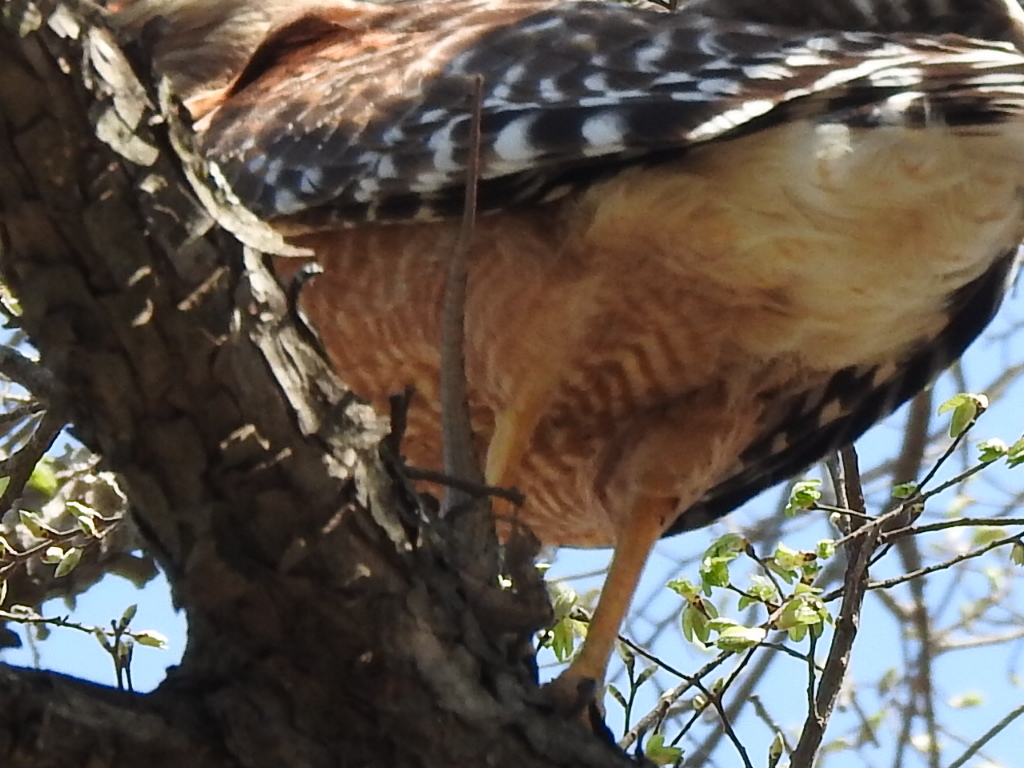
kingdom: Animalia
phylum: Chordata
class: Squamata
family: Phrynosomatidae
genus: Sceloporus
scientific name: Sceloporus olivaceus
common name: Texas spiny lizard
